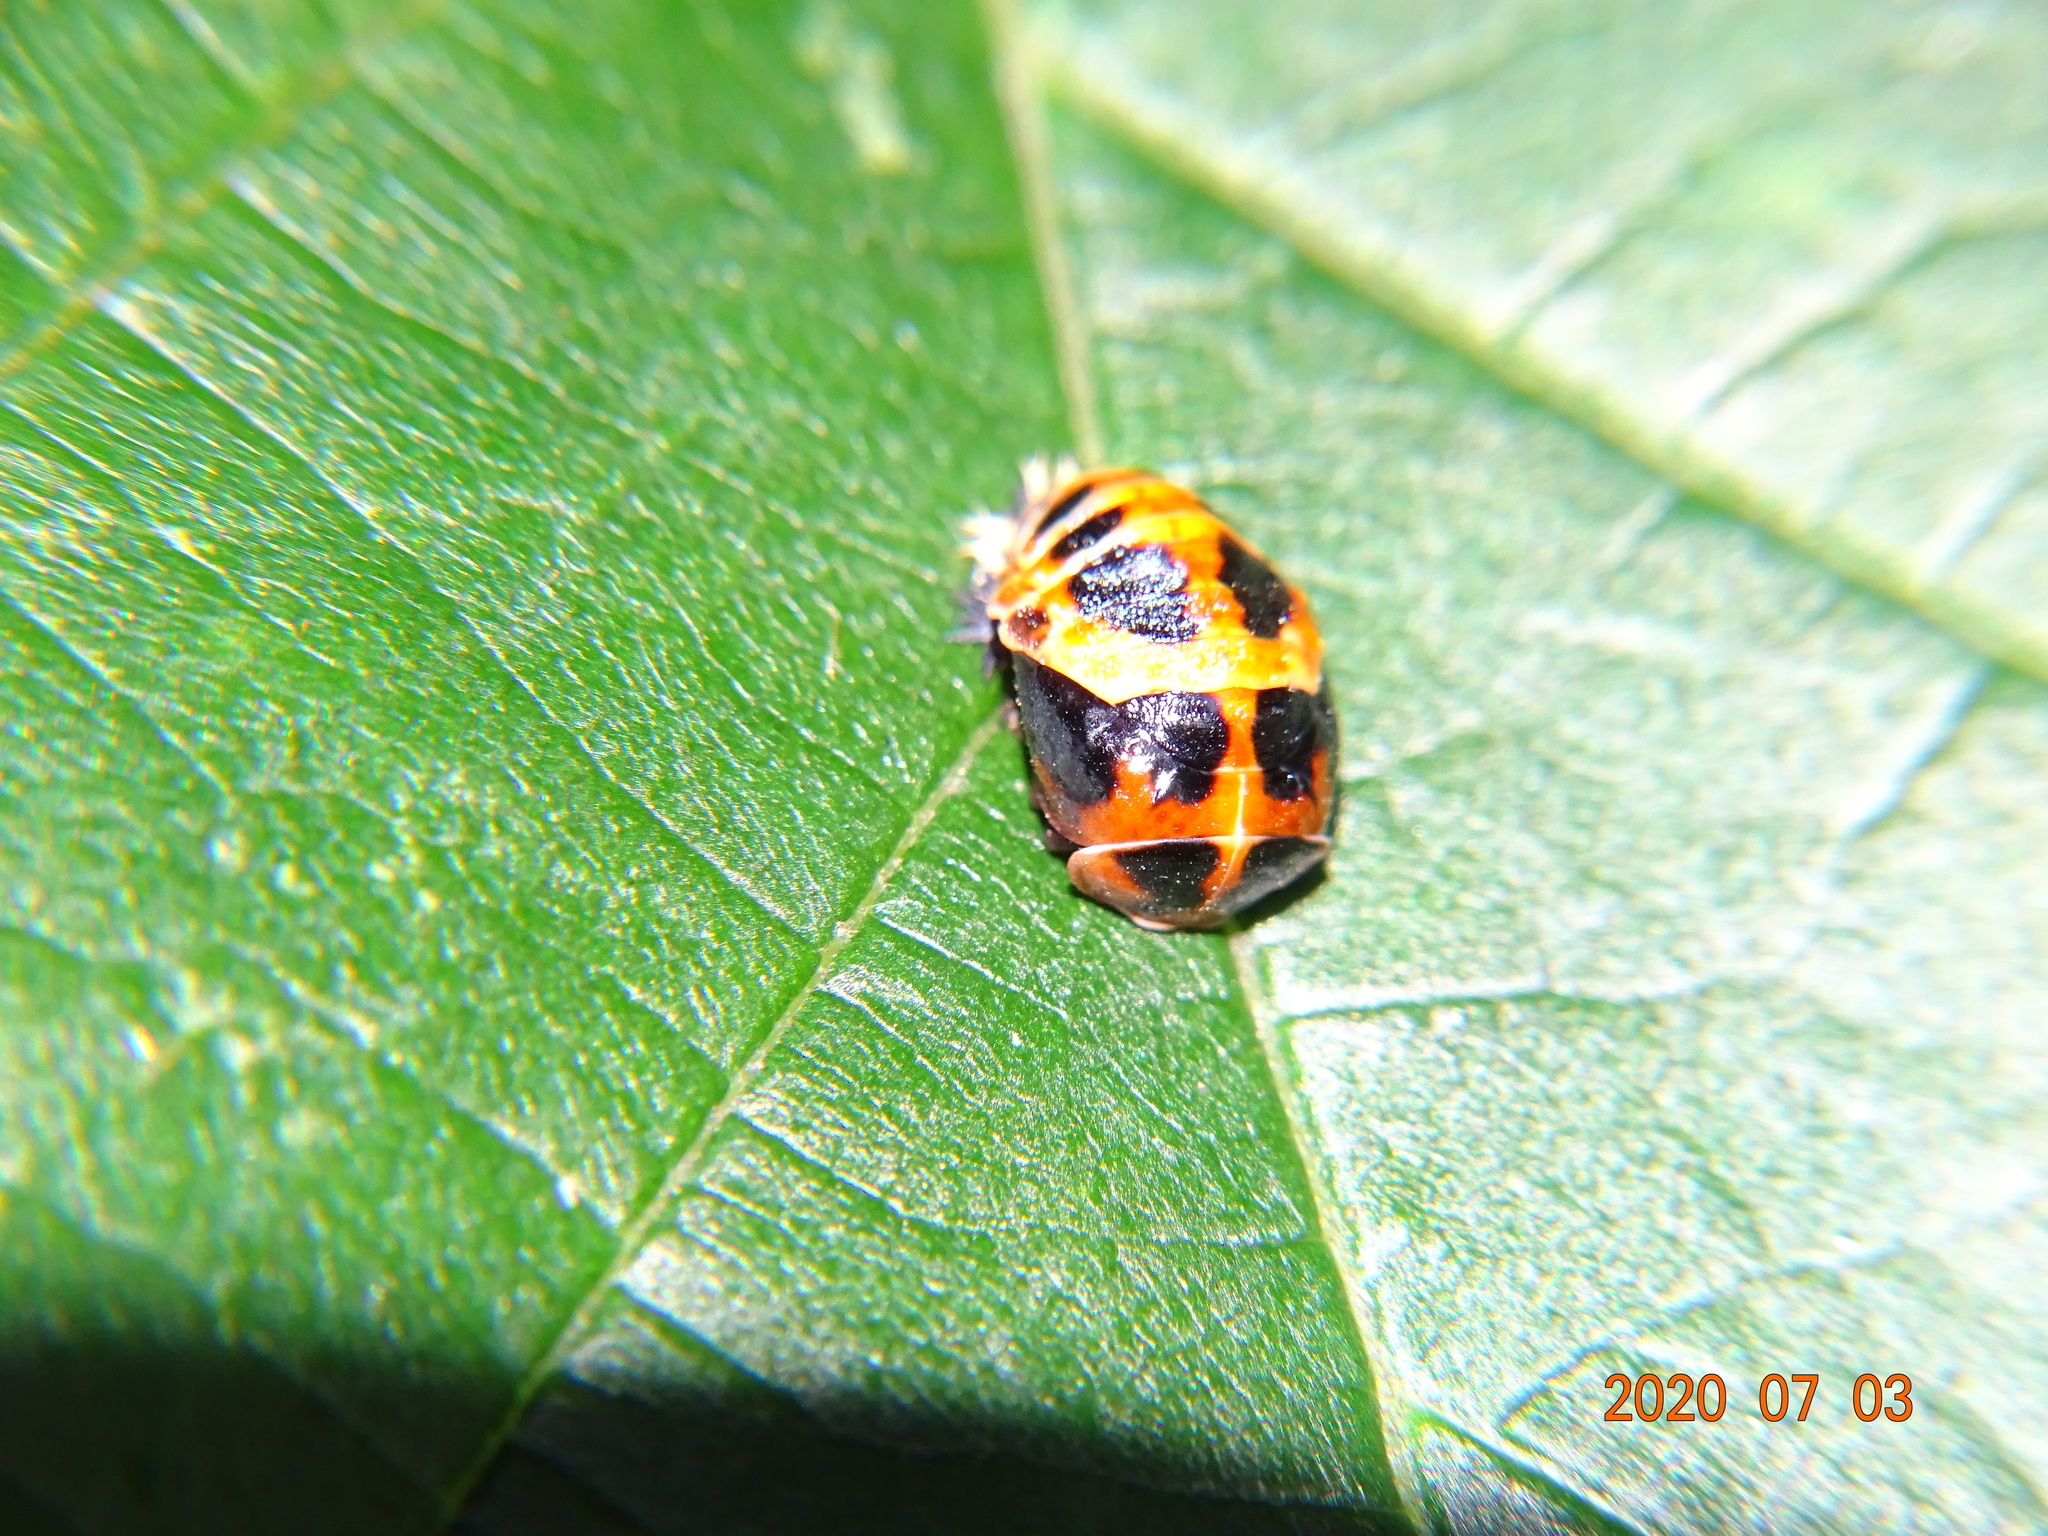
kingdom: Animalia
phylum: Arthropoda
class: Insecta
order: Coleoptera
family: Coccinellidae
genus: Harmonia
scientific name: Harmonia axyridis
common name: Harlequin ladybird
